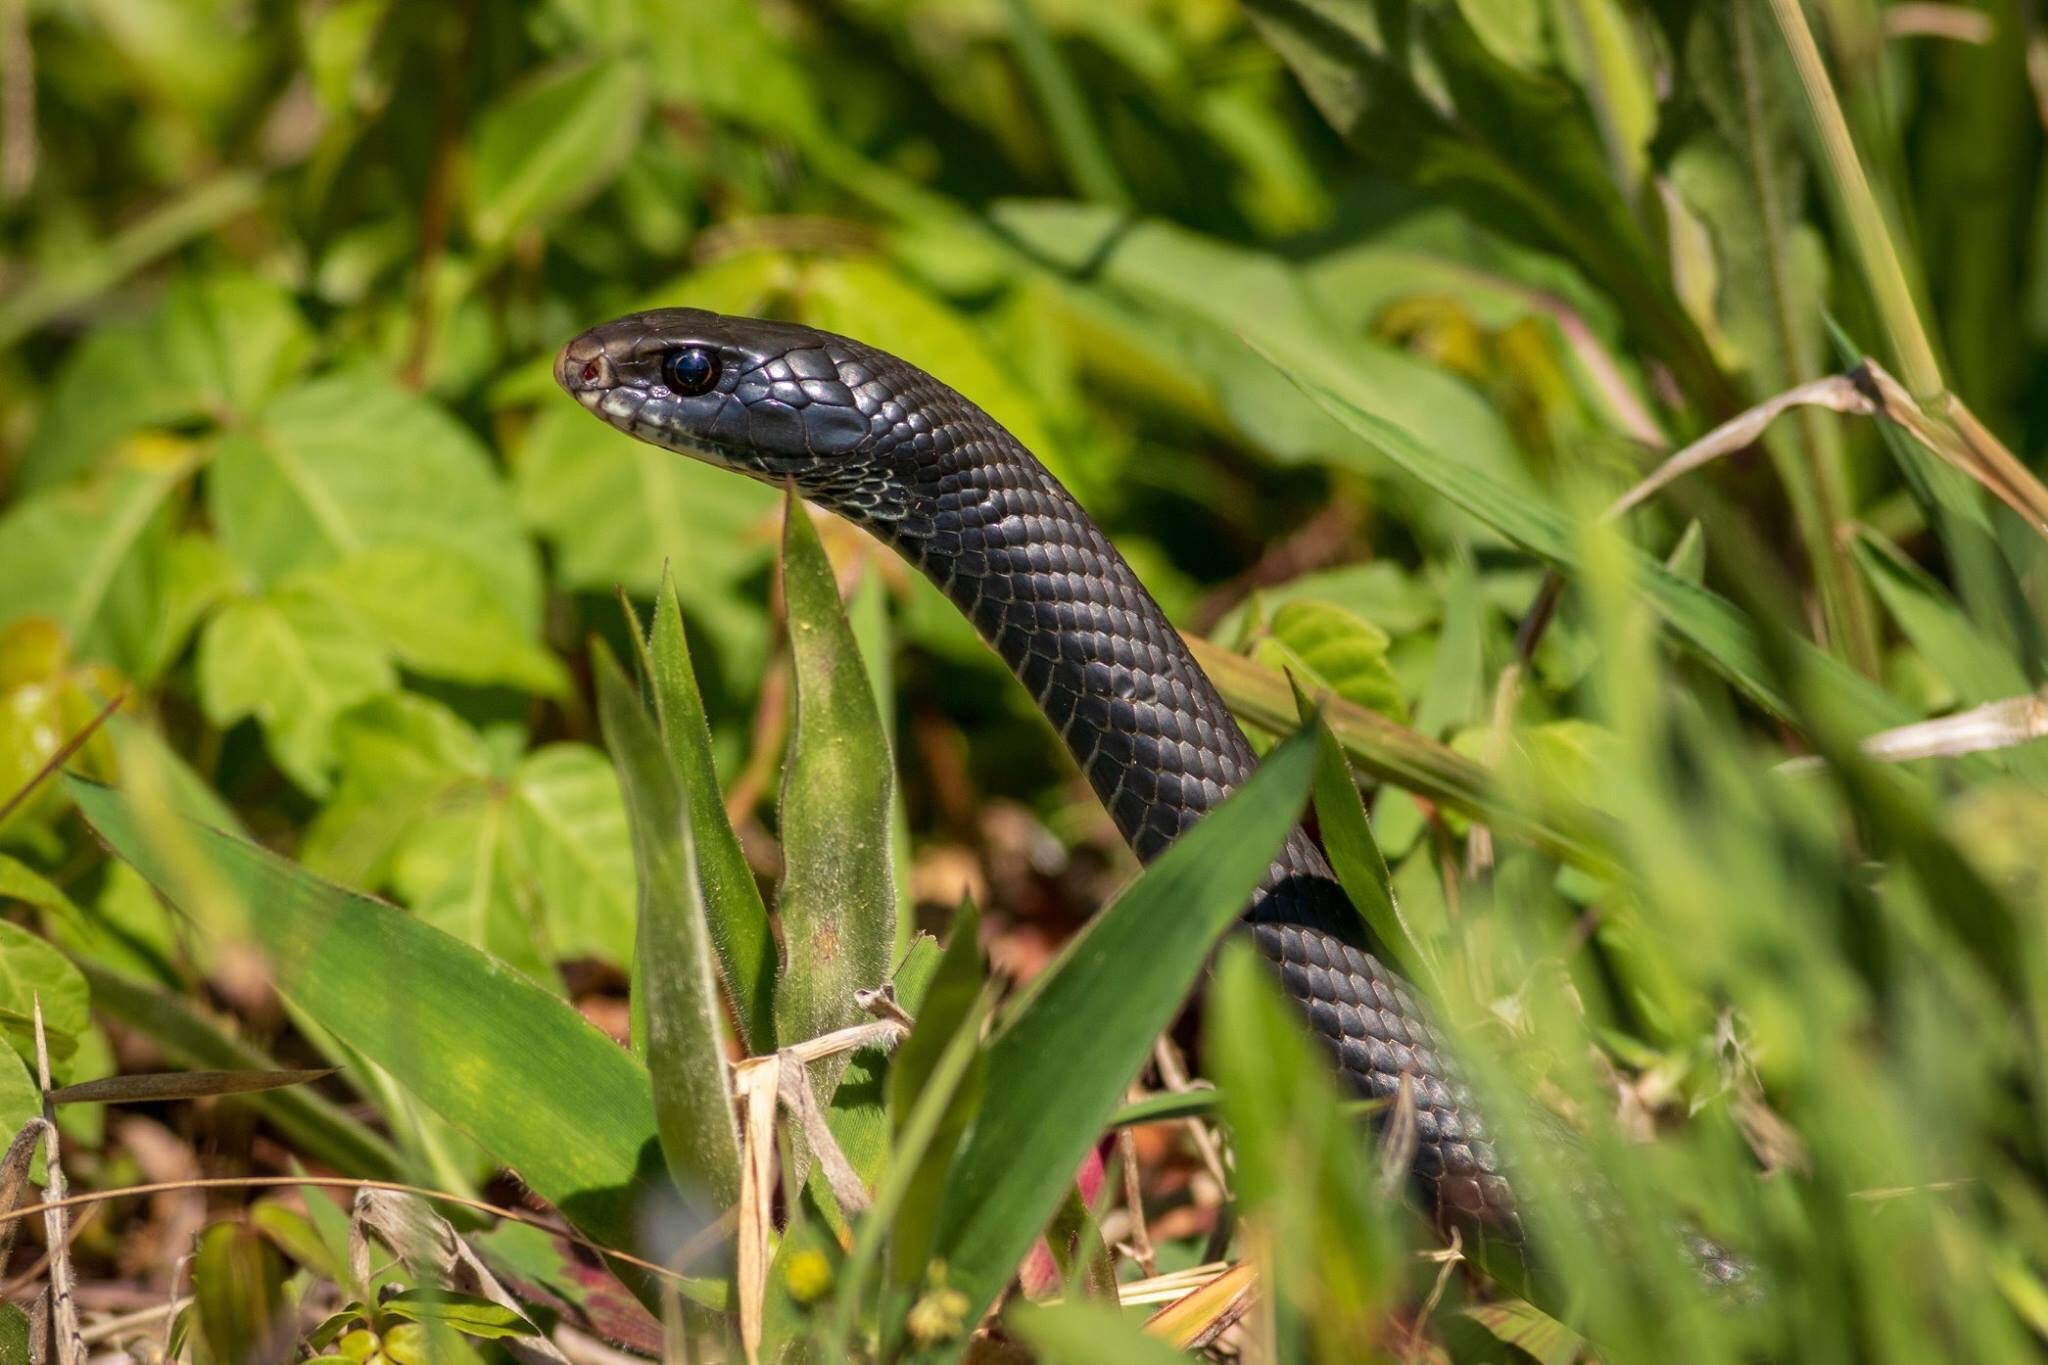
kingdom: Animalia
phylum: Chordata
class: Squamata
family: Colubridae
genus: Coluber
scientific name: Coluber constrictor
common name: Eastern racer
